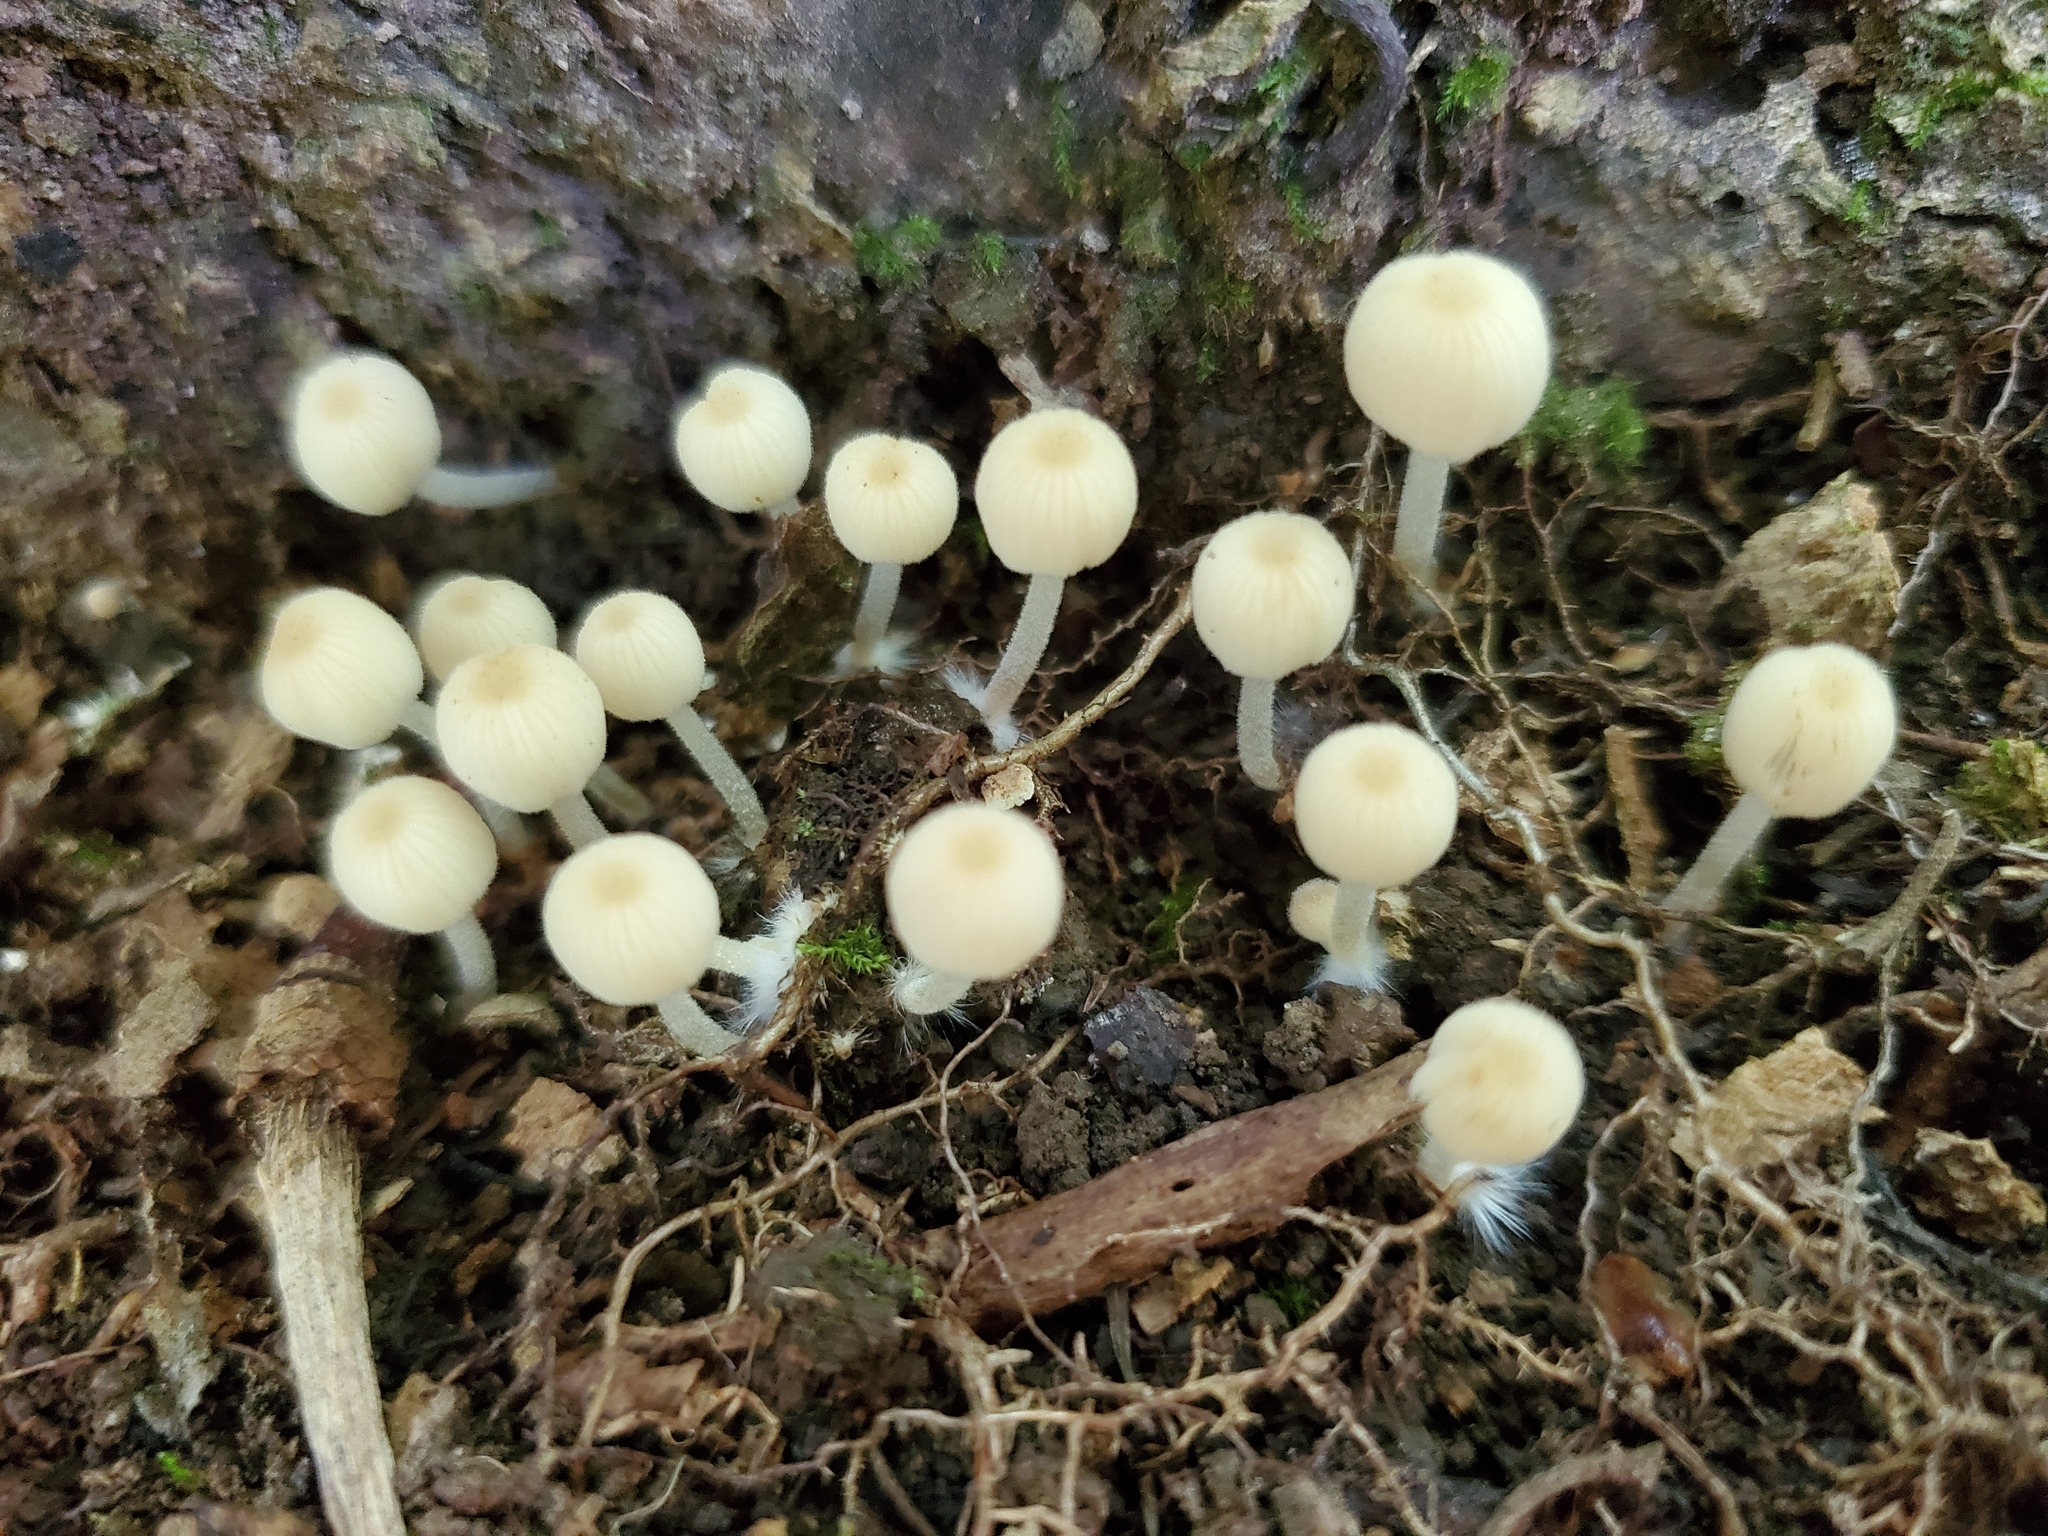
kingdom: Fungi
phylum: Basidiomycota
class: Agaricomycetes
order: Agaricales
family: Psathyrellaceae
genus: Coprinellus
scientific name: Coprinellus disseminatus
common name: Fairies' bonnets
